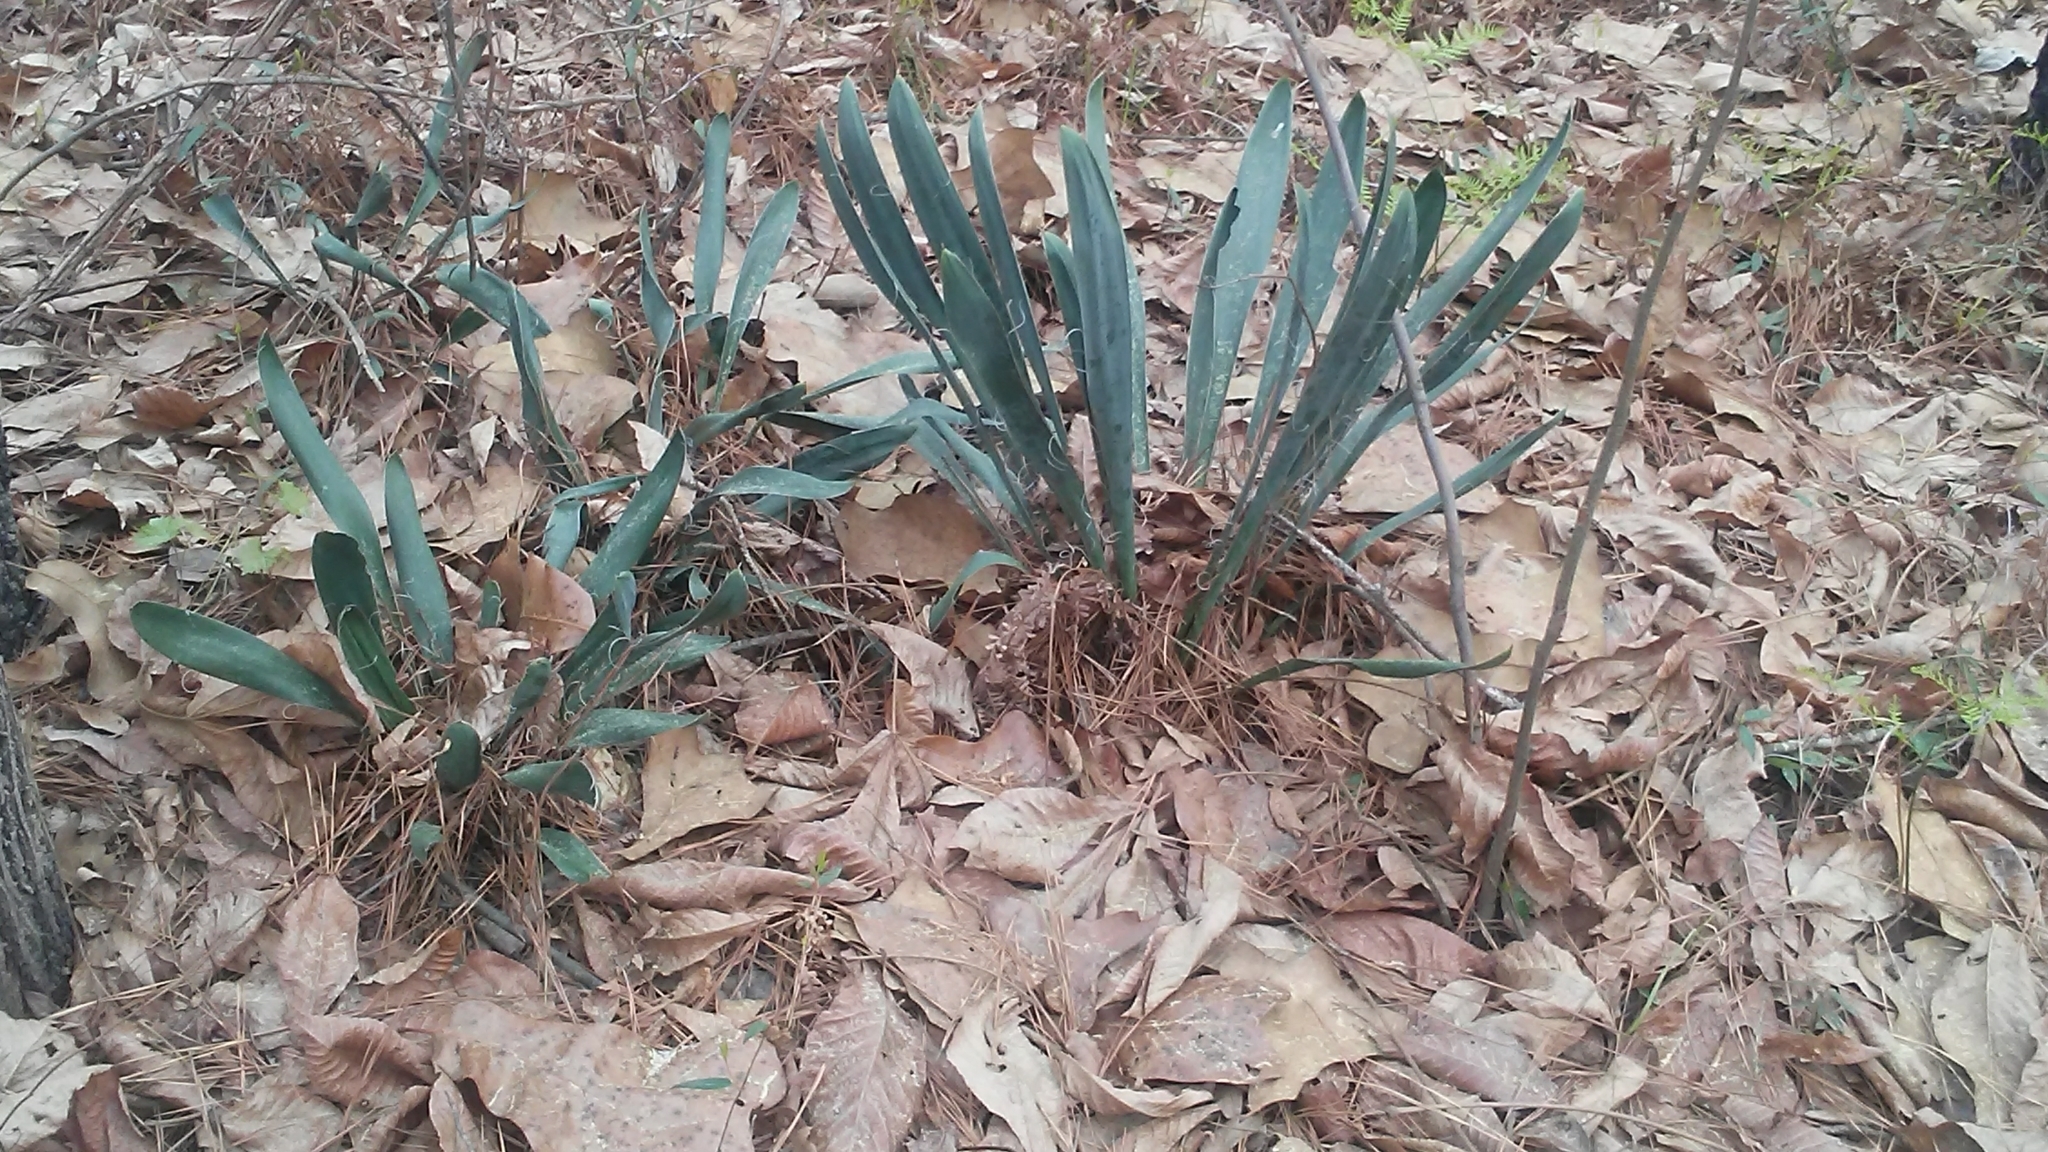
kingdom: Plantae
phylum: Tracheophyta
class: Liliopsida
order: Asparagales
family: Asparagaceae
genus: Yucca
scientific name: Yucca filamentosa
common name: Adam's-needle
